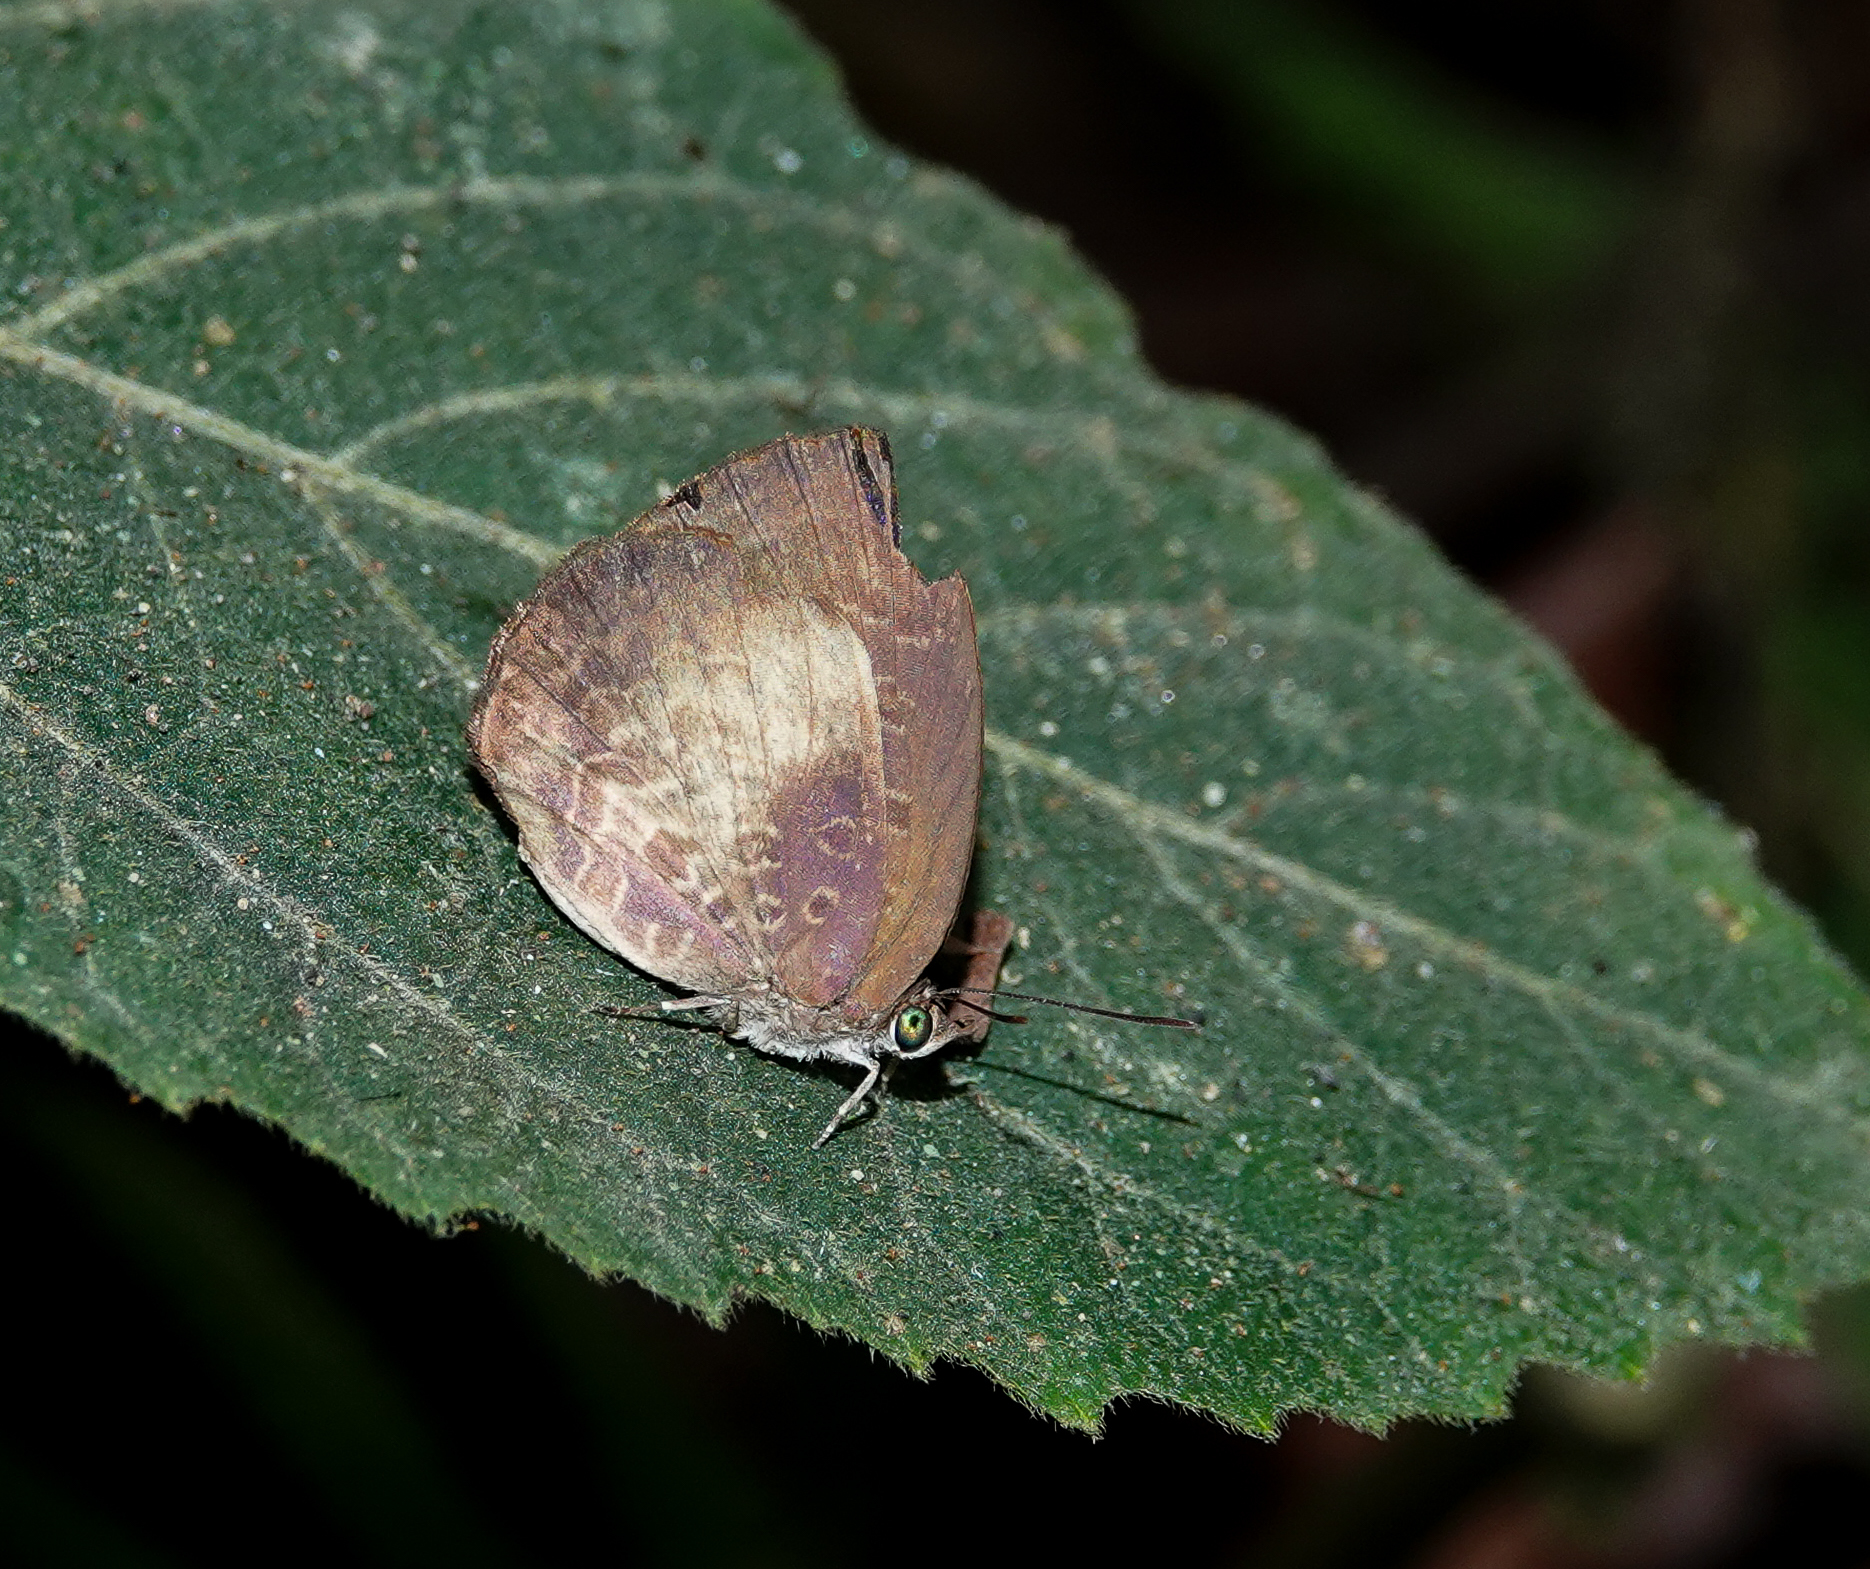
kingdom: Animalia
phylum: Arthropoda
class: Insecta
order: Lepidoptera
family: Lycaenidae
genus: Arhopala
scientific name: Arhopala perimuta
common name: Yellowdisc oakblue
